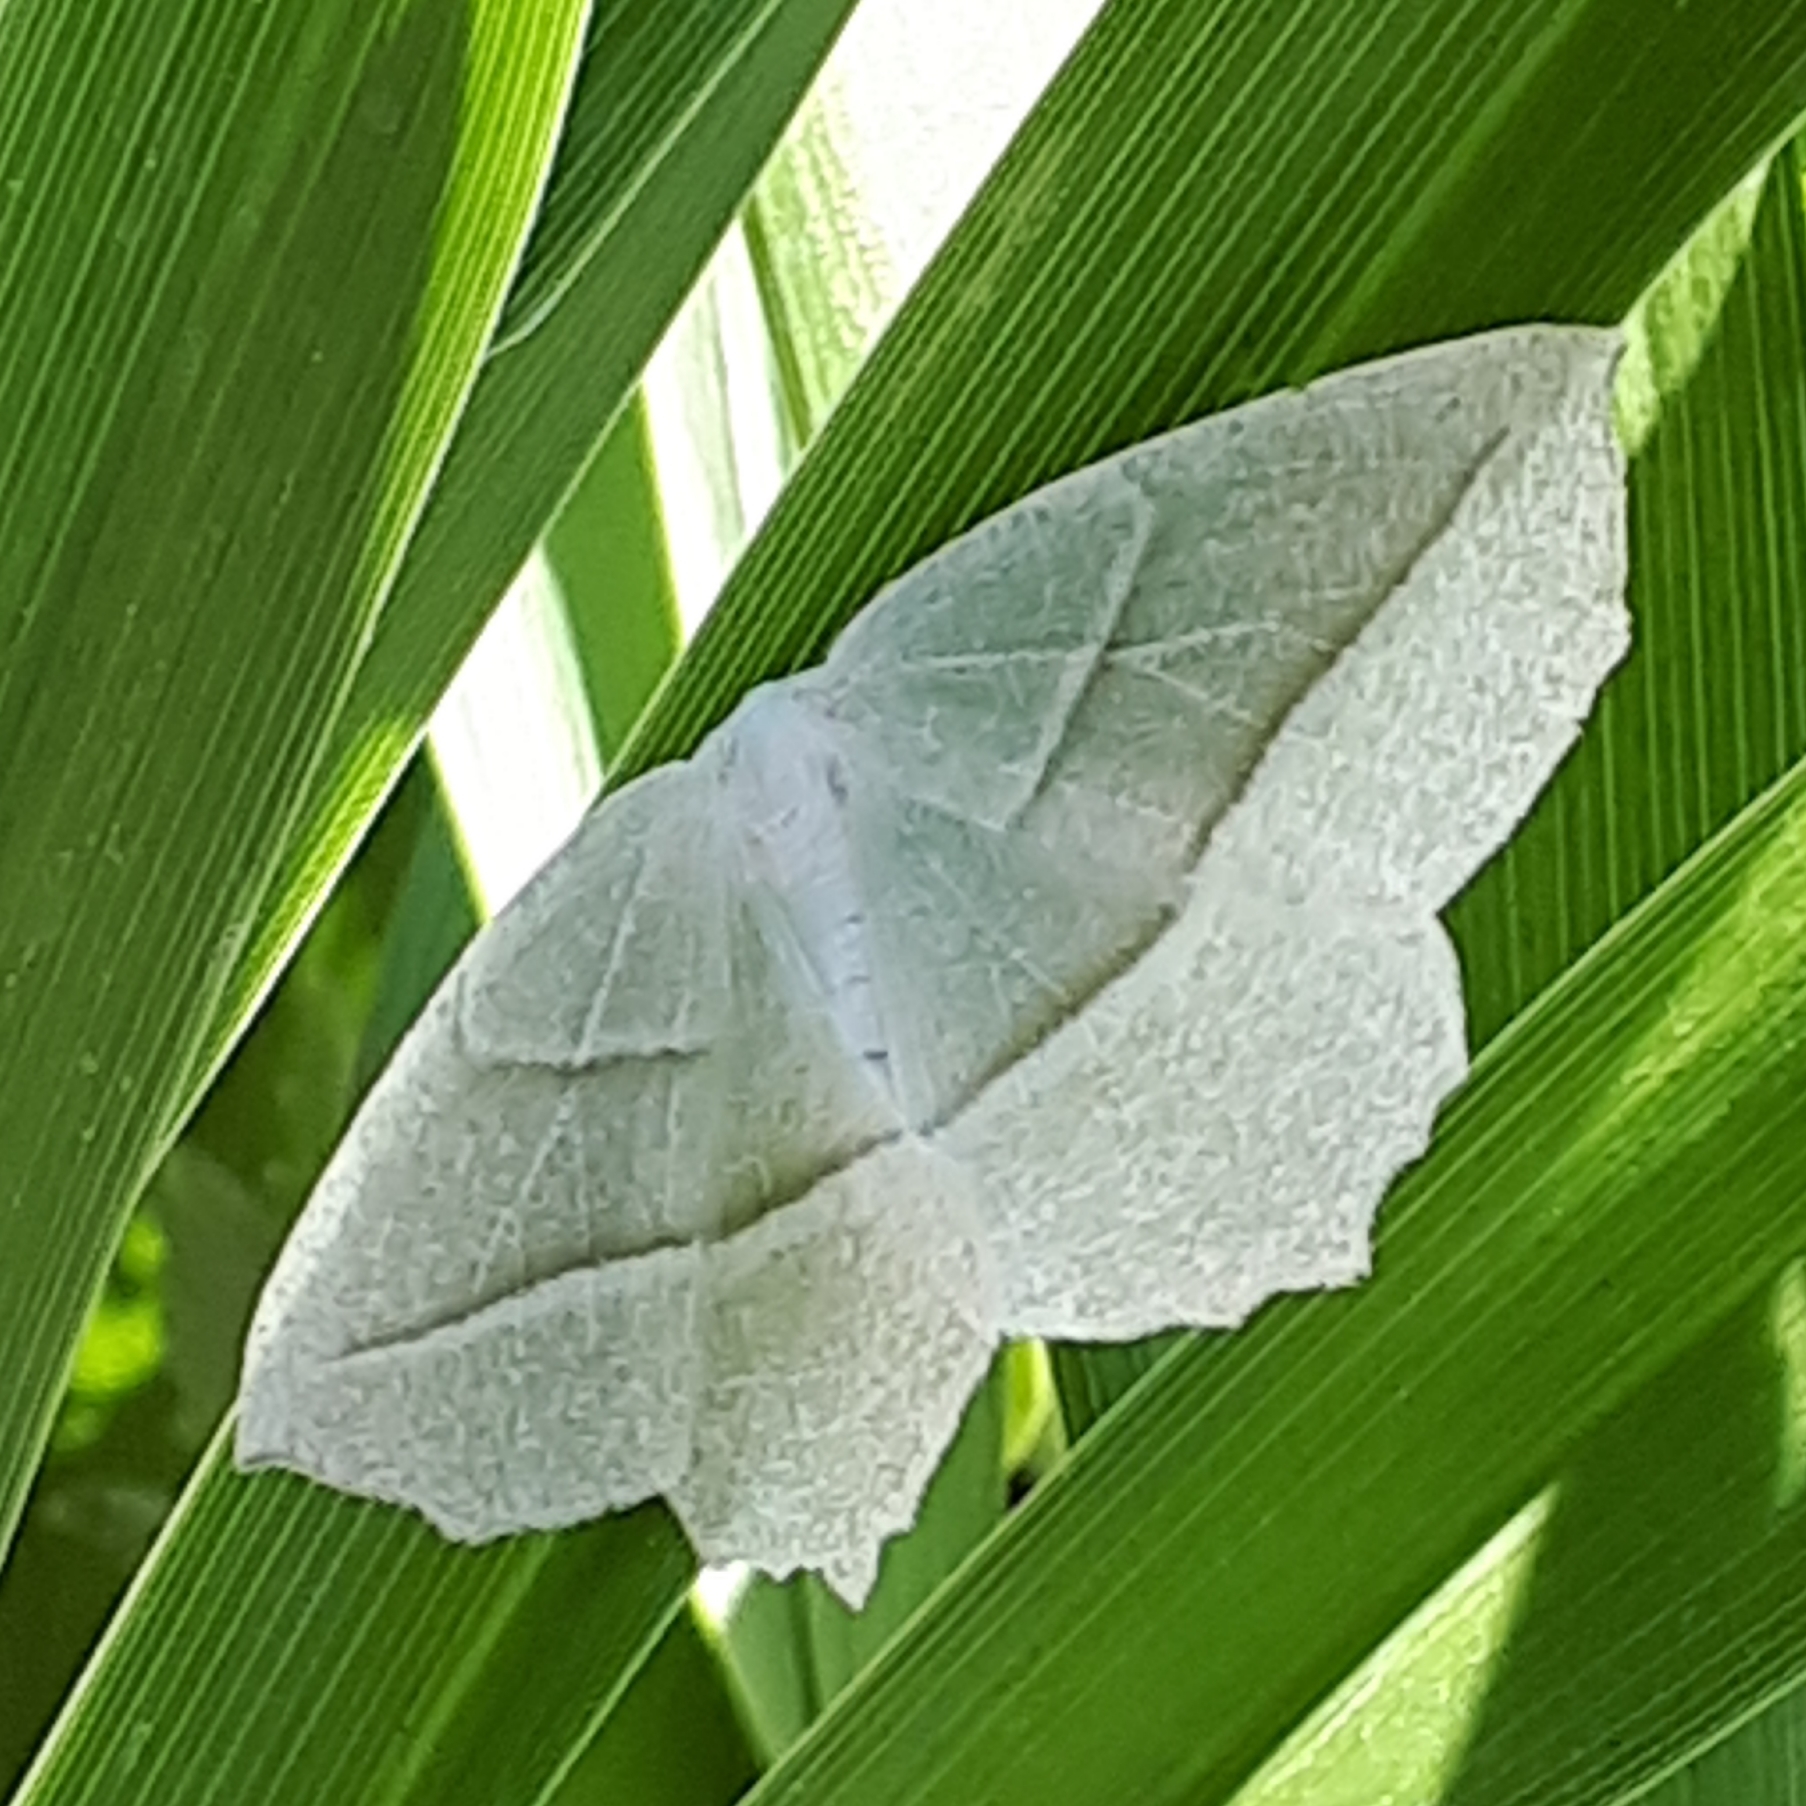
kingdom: Animalia
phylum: Arthropoda
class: Insecta
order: Lepidoptera
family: Geometridae
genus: Campaea
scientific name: Campaea perlata
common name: Fringed looper
